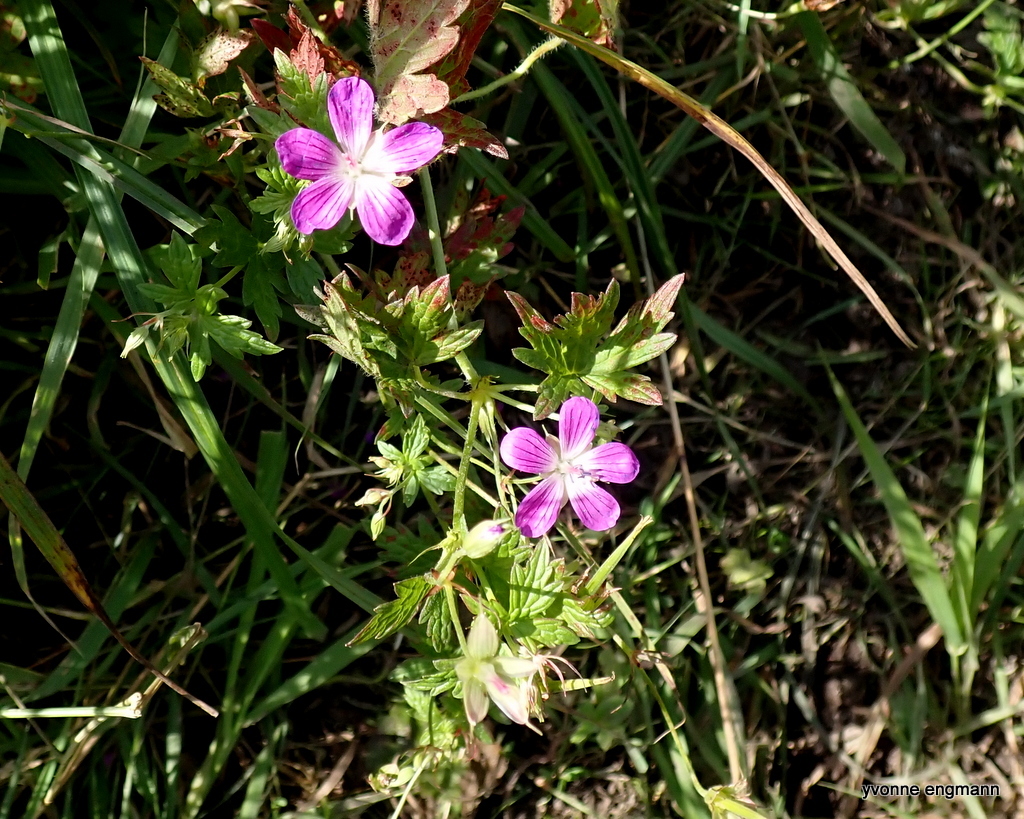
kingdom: Plantae
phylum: Tracheophyta
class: Magnoliopsida
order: Geraniales
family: Geraniaceae
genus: Geranium
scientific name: Geranium palustre
